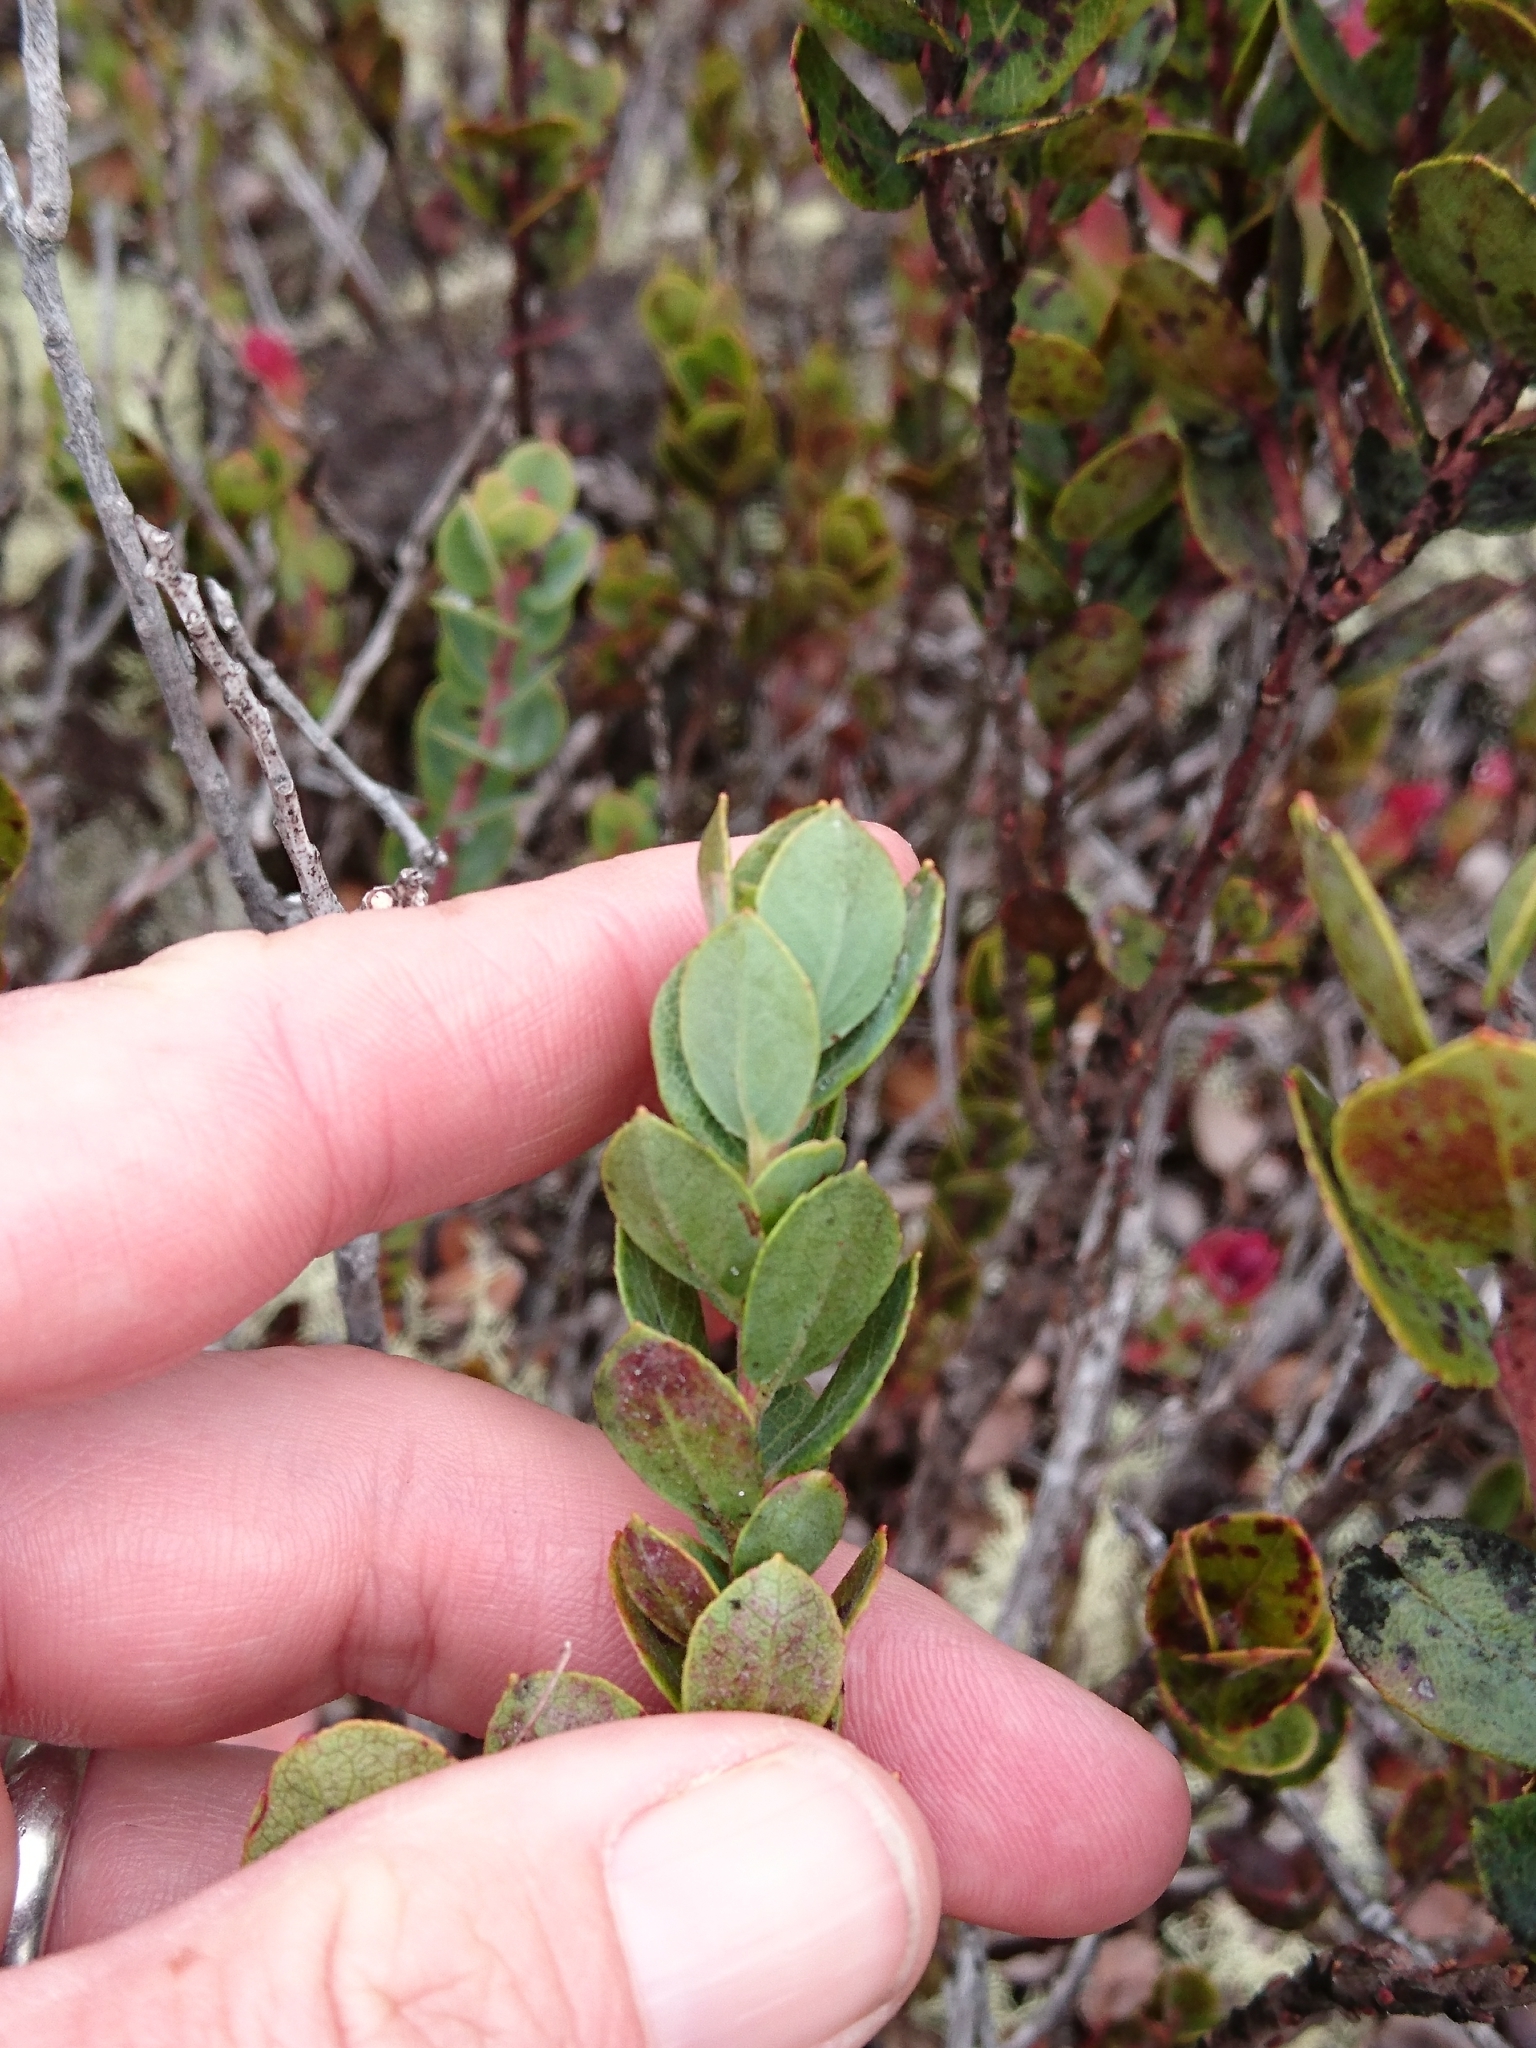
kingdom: Plantae
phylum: Tracheophyta
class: Magnoliopsida
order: Ericales
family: Ericaceae
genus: Vaccinium
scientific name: Vaccinium reticulatum
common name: Ohelo
